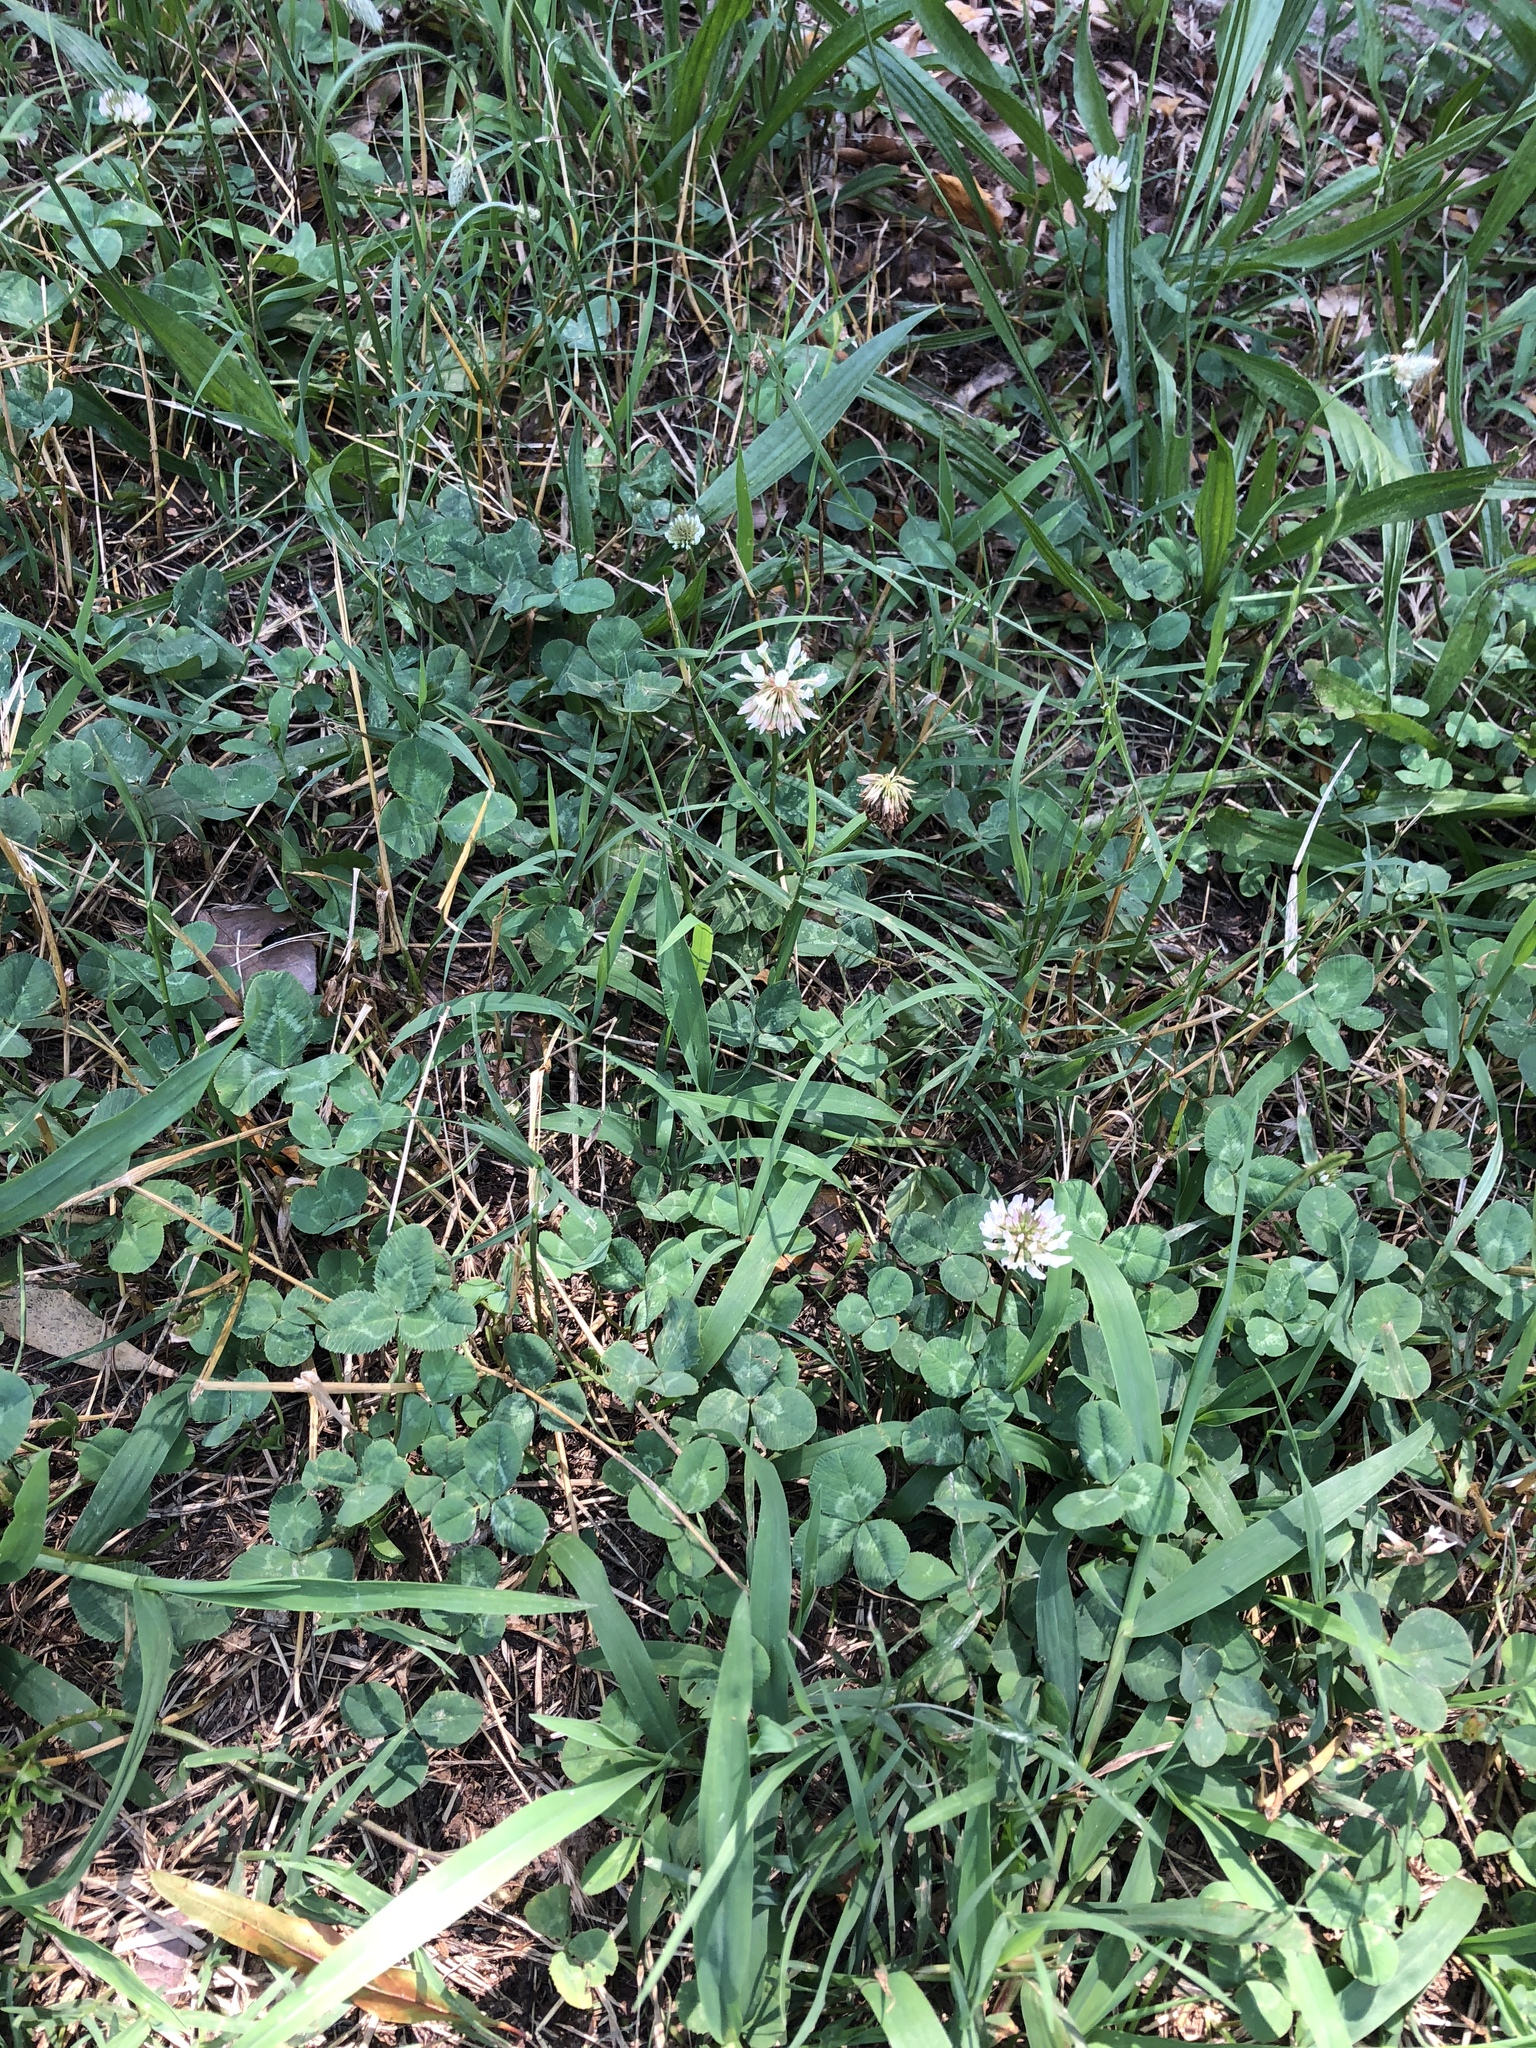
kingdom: Plantae
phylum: Tracheophyta
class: Magnoliopsida
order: Fabales
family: Fabaceae
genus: Trifolium
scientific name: Trifolium repens
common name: White clover
